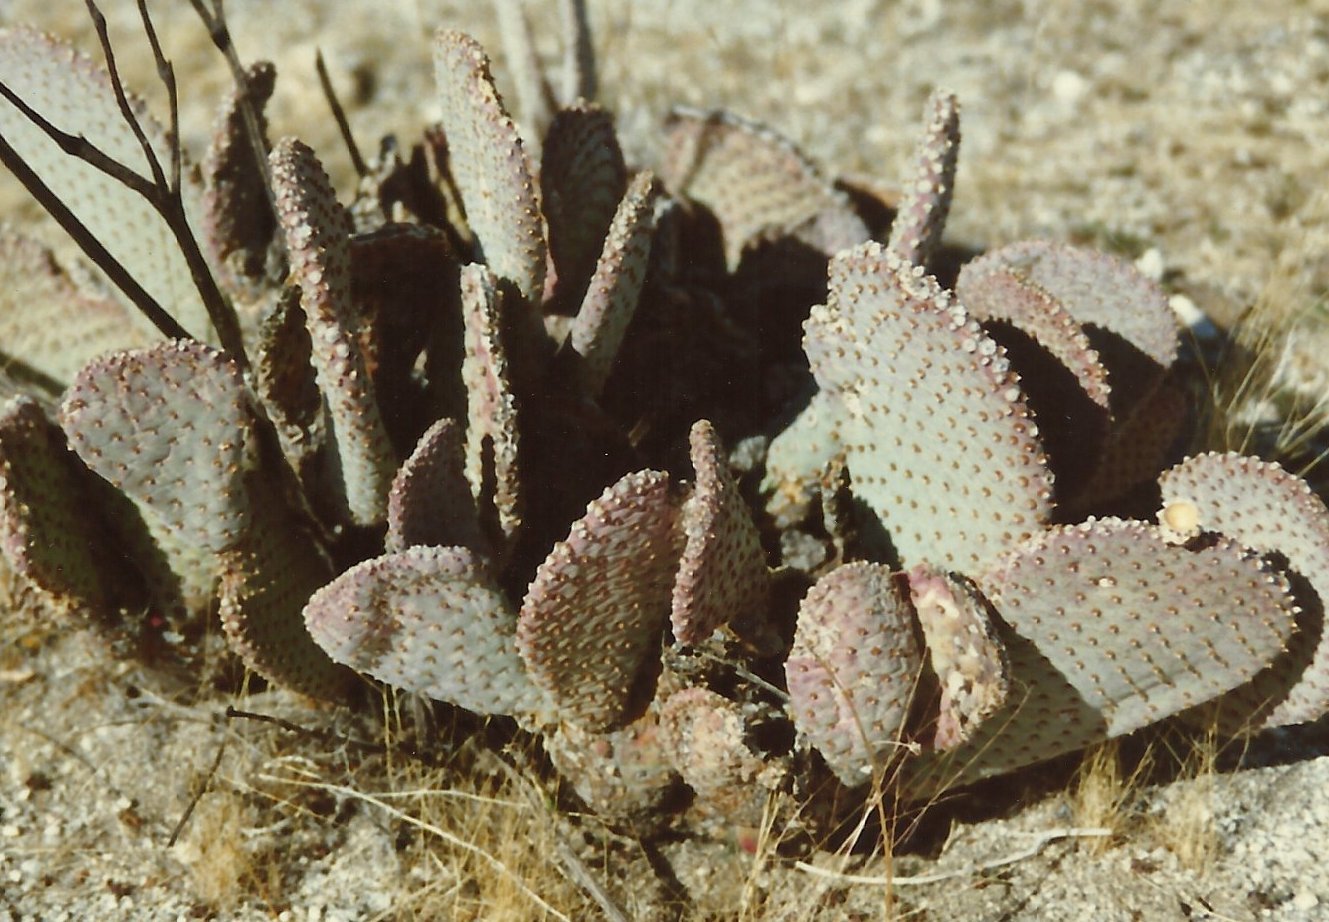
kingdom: Plantae
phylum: Tracheophyta
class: Magnoliopsida
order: Caryophyllales
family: Cactaceae
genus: Opuntia
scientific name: Opuntia basilaris
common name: Beavertail prickly-pear
